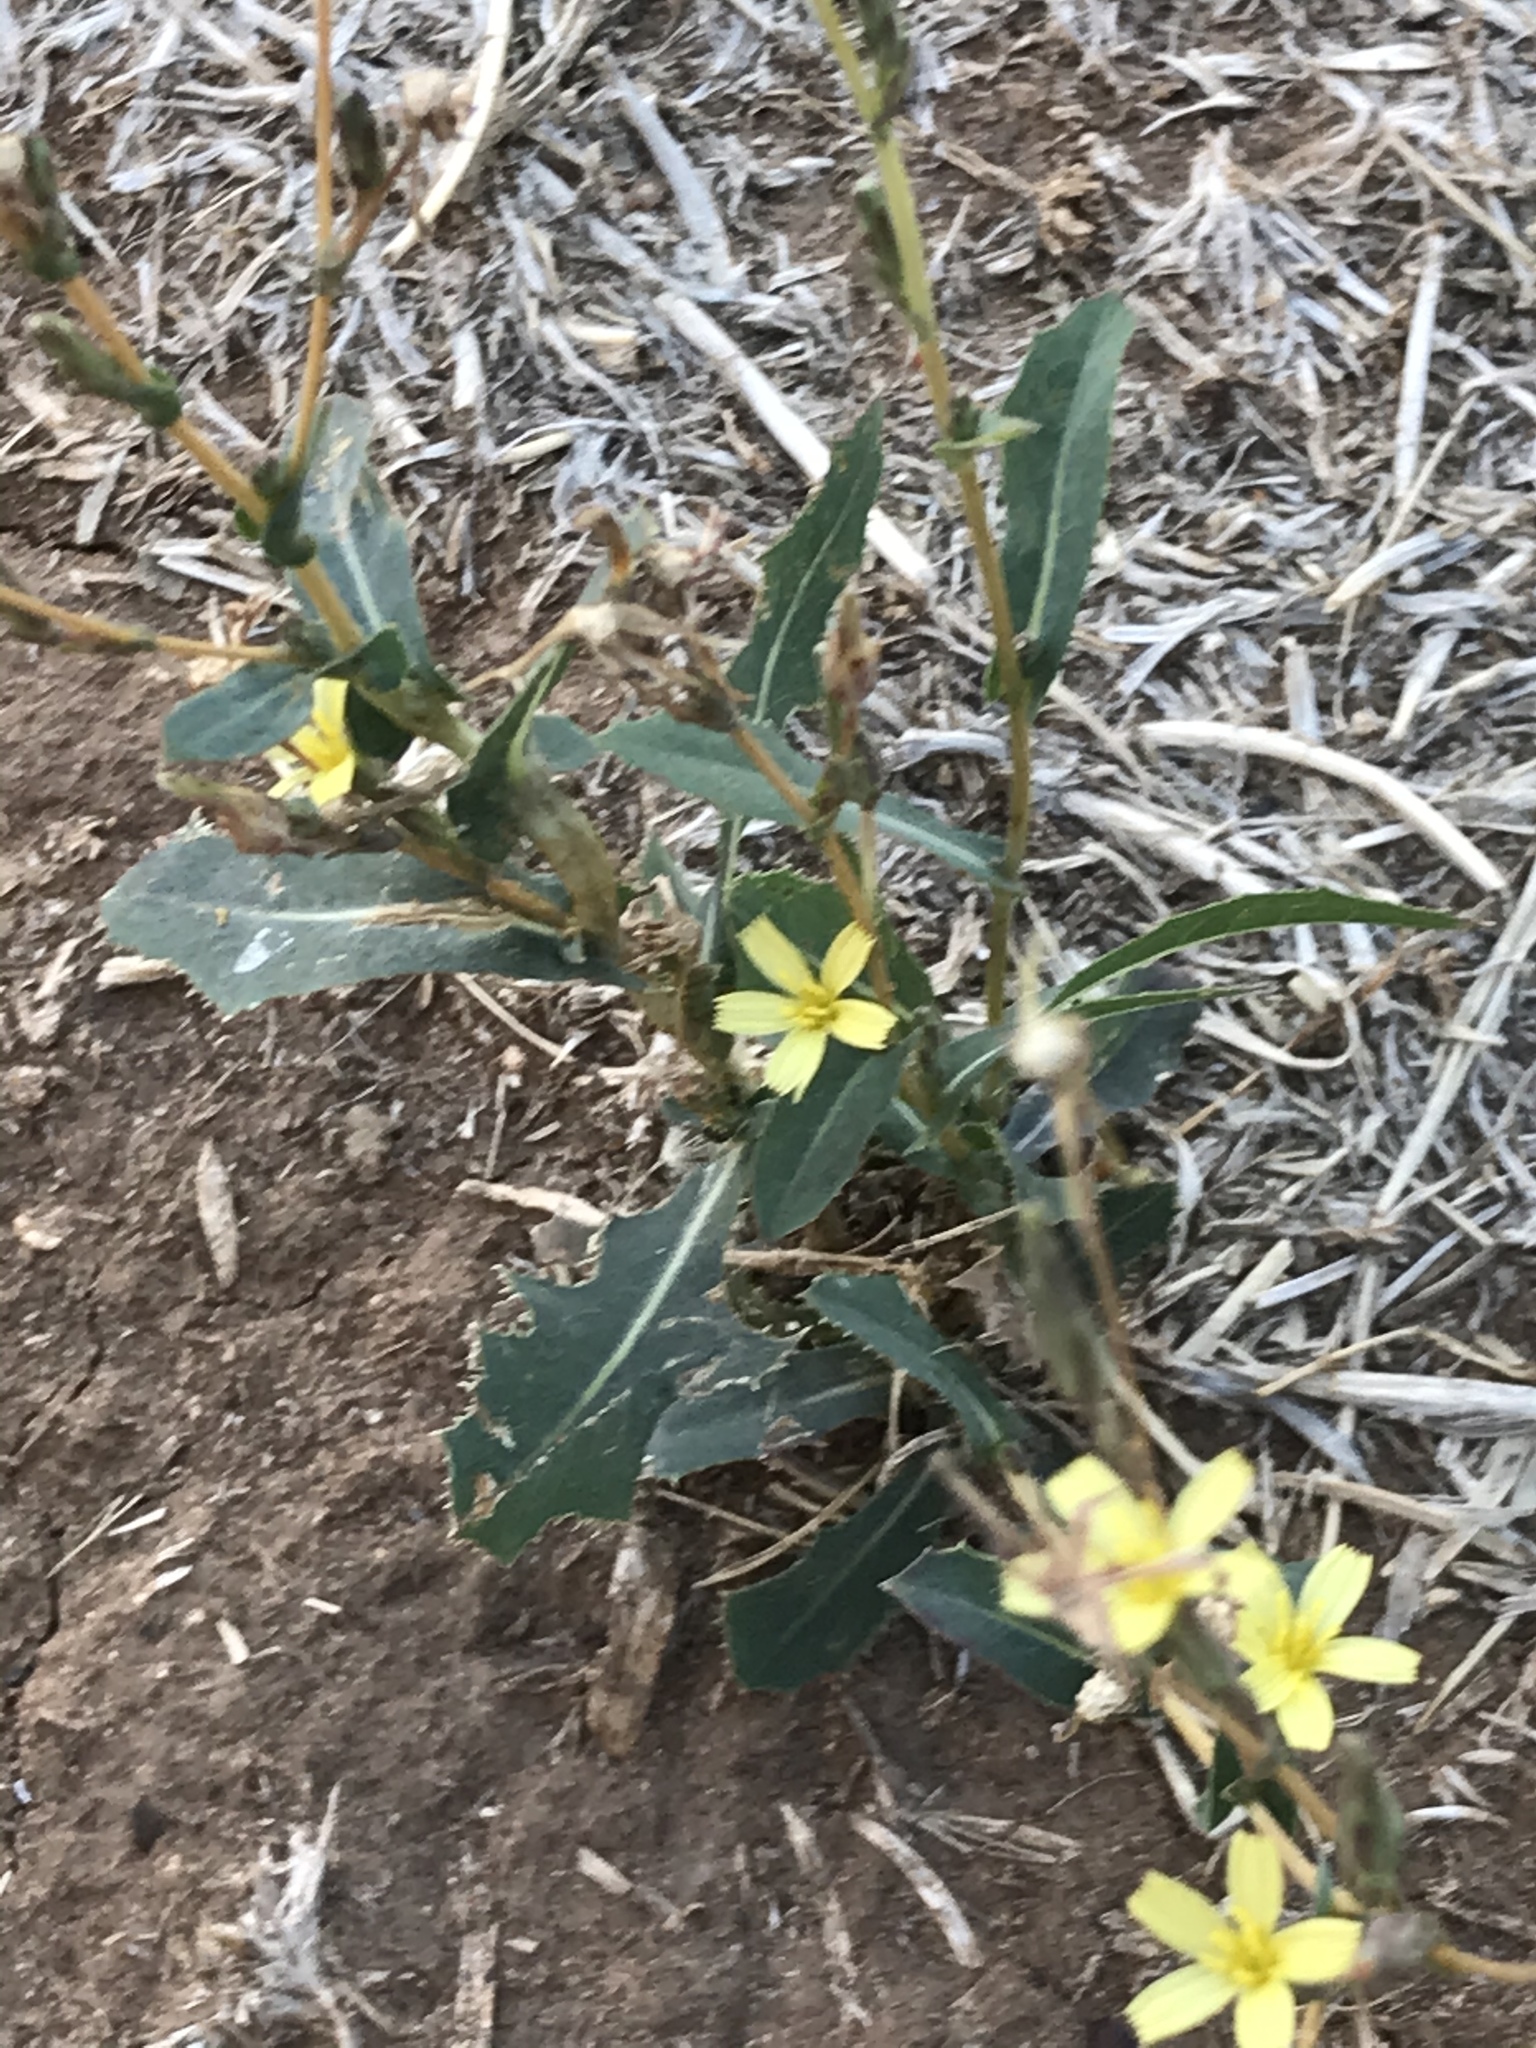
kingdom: Plantae
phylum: Tracheophyta
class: Magnoliopsida
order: Asterales
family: Asteraceae
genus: Lactuca
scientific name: Lactuca serriola
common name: Prickly lettuce
